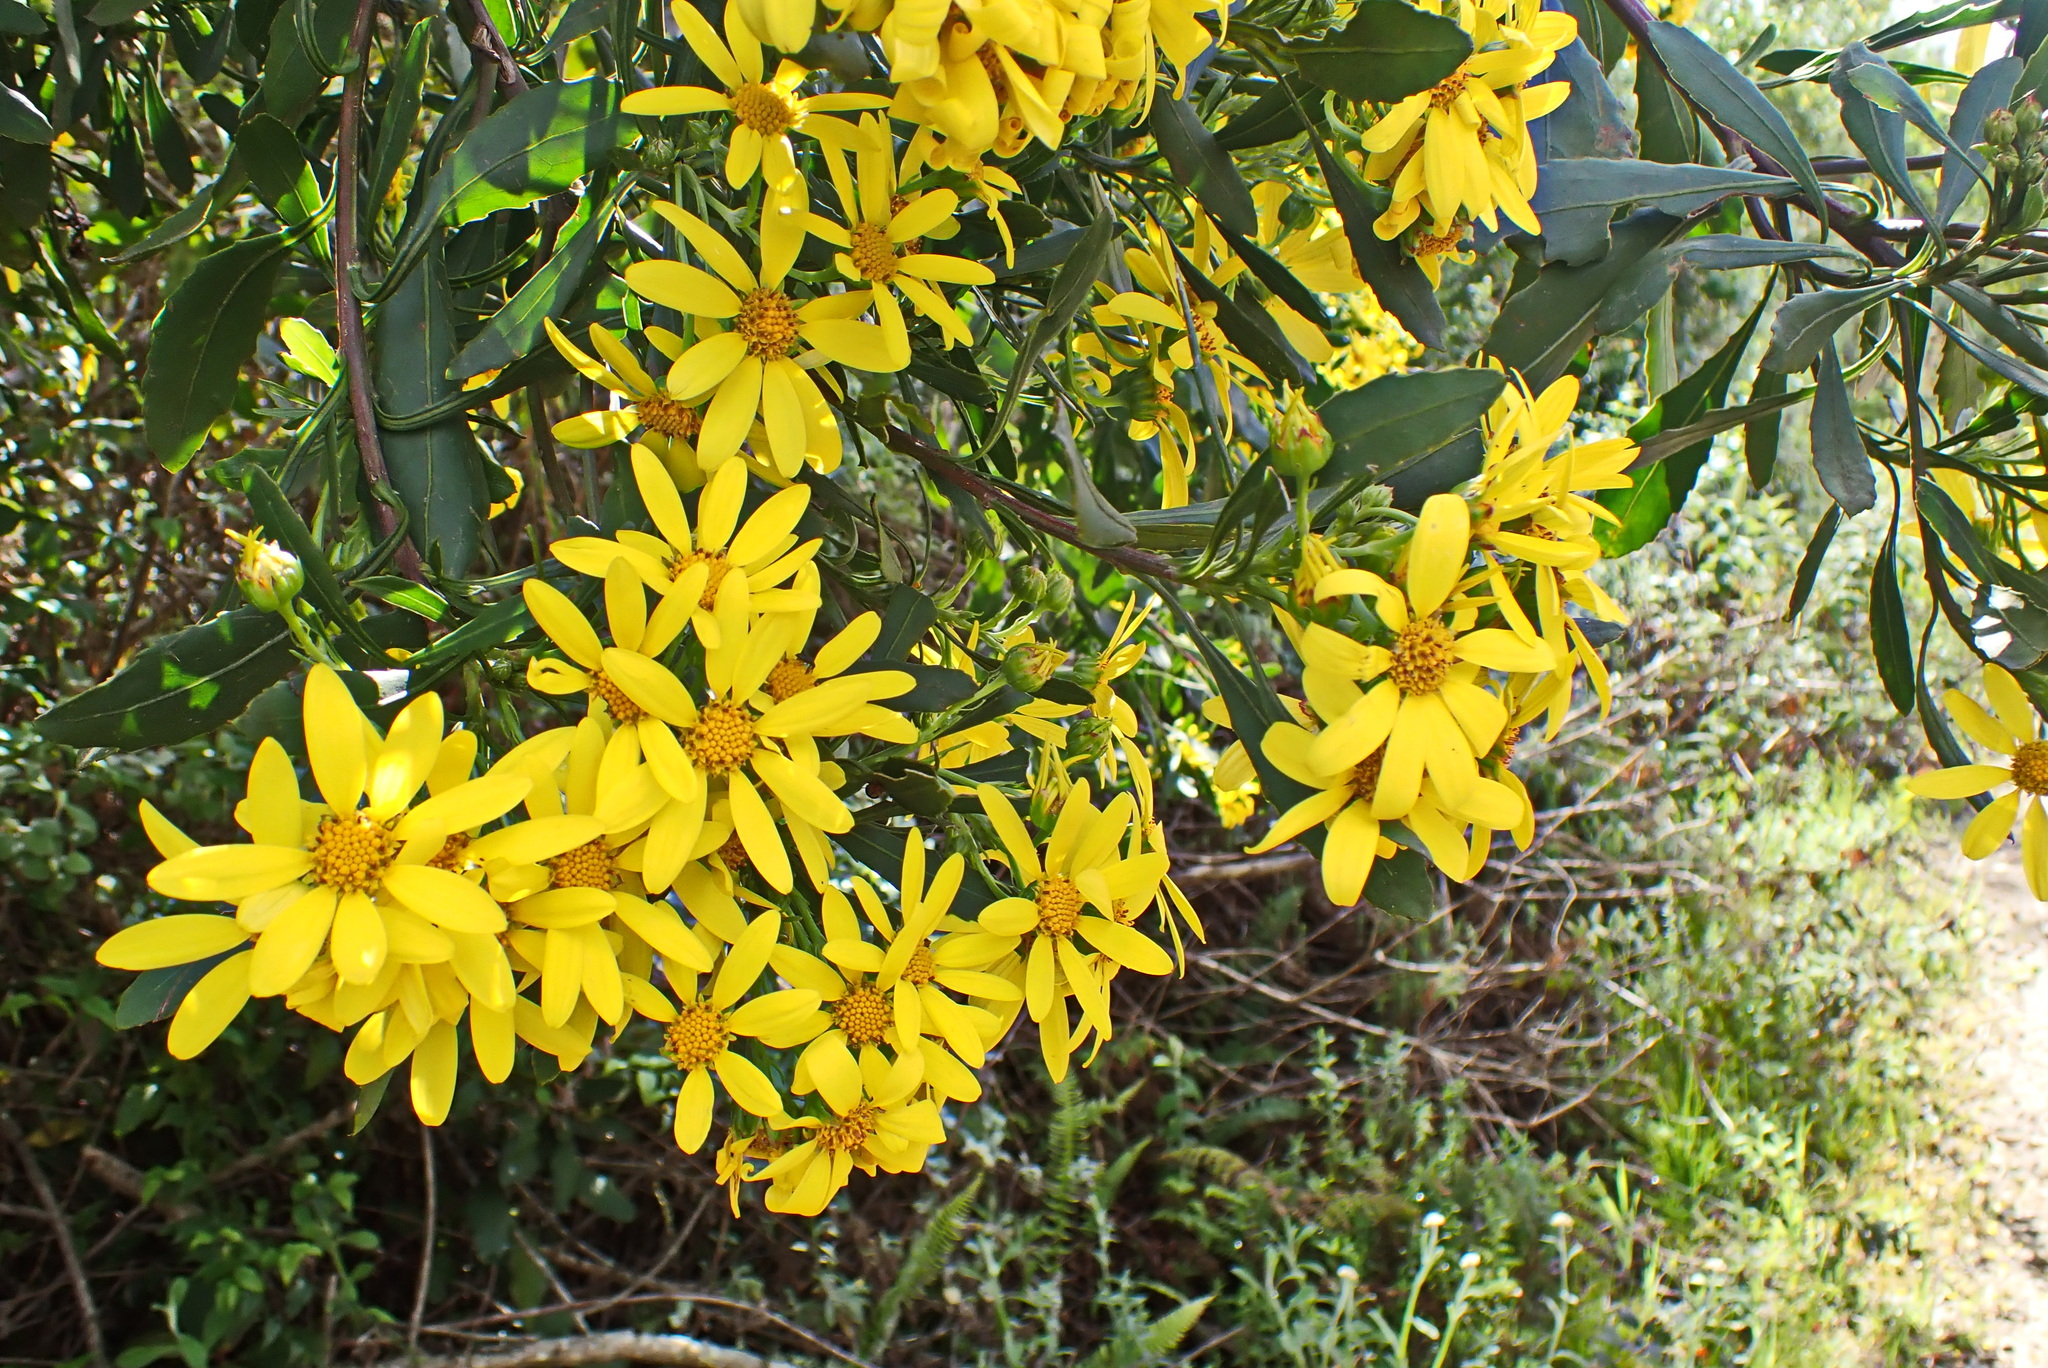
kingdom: Plantae
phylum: Tracheophyta
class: Magnoliopsida
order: Asterales
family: Asteraceae
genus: Osteospermum
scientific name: Osteospermum moniliferum
